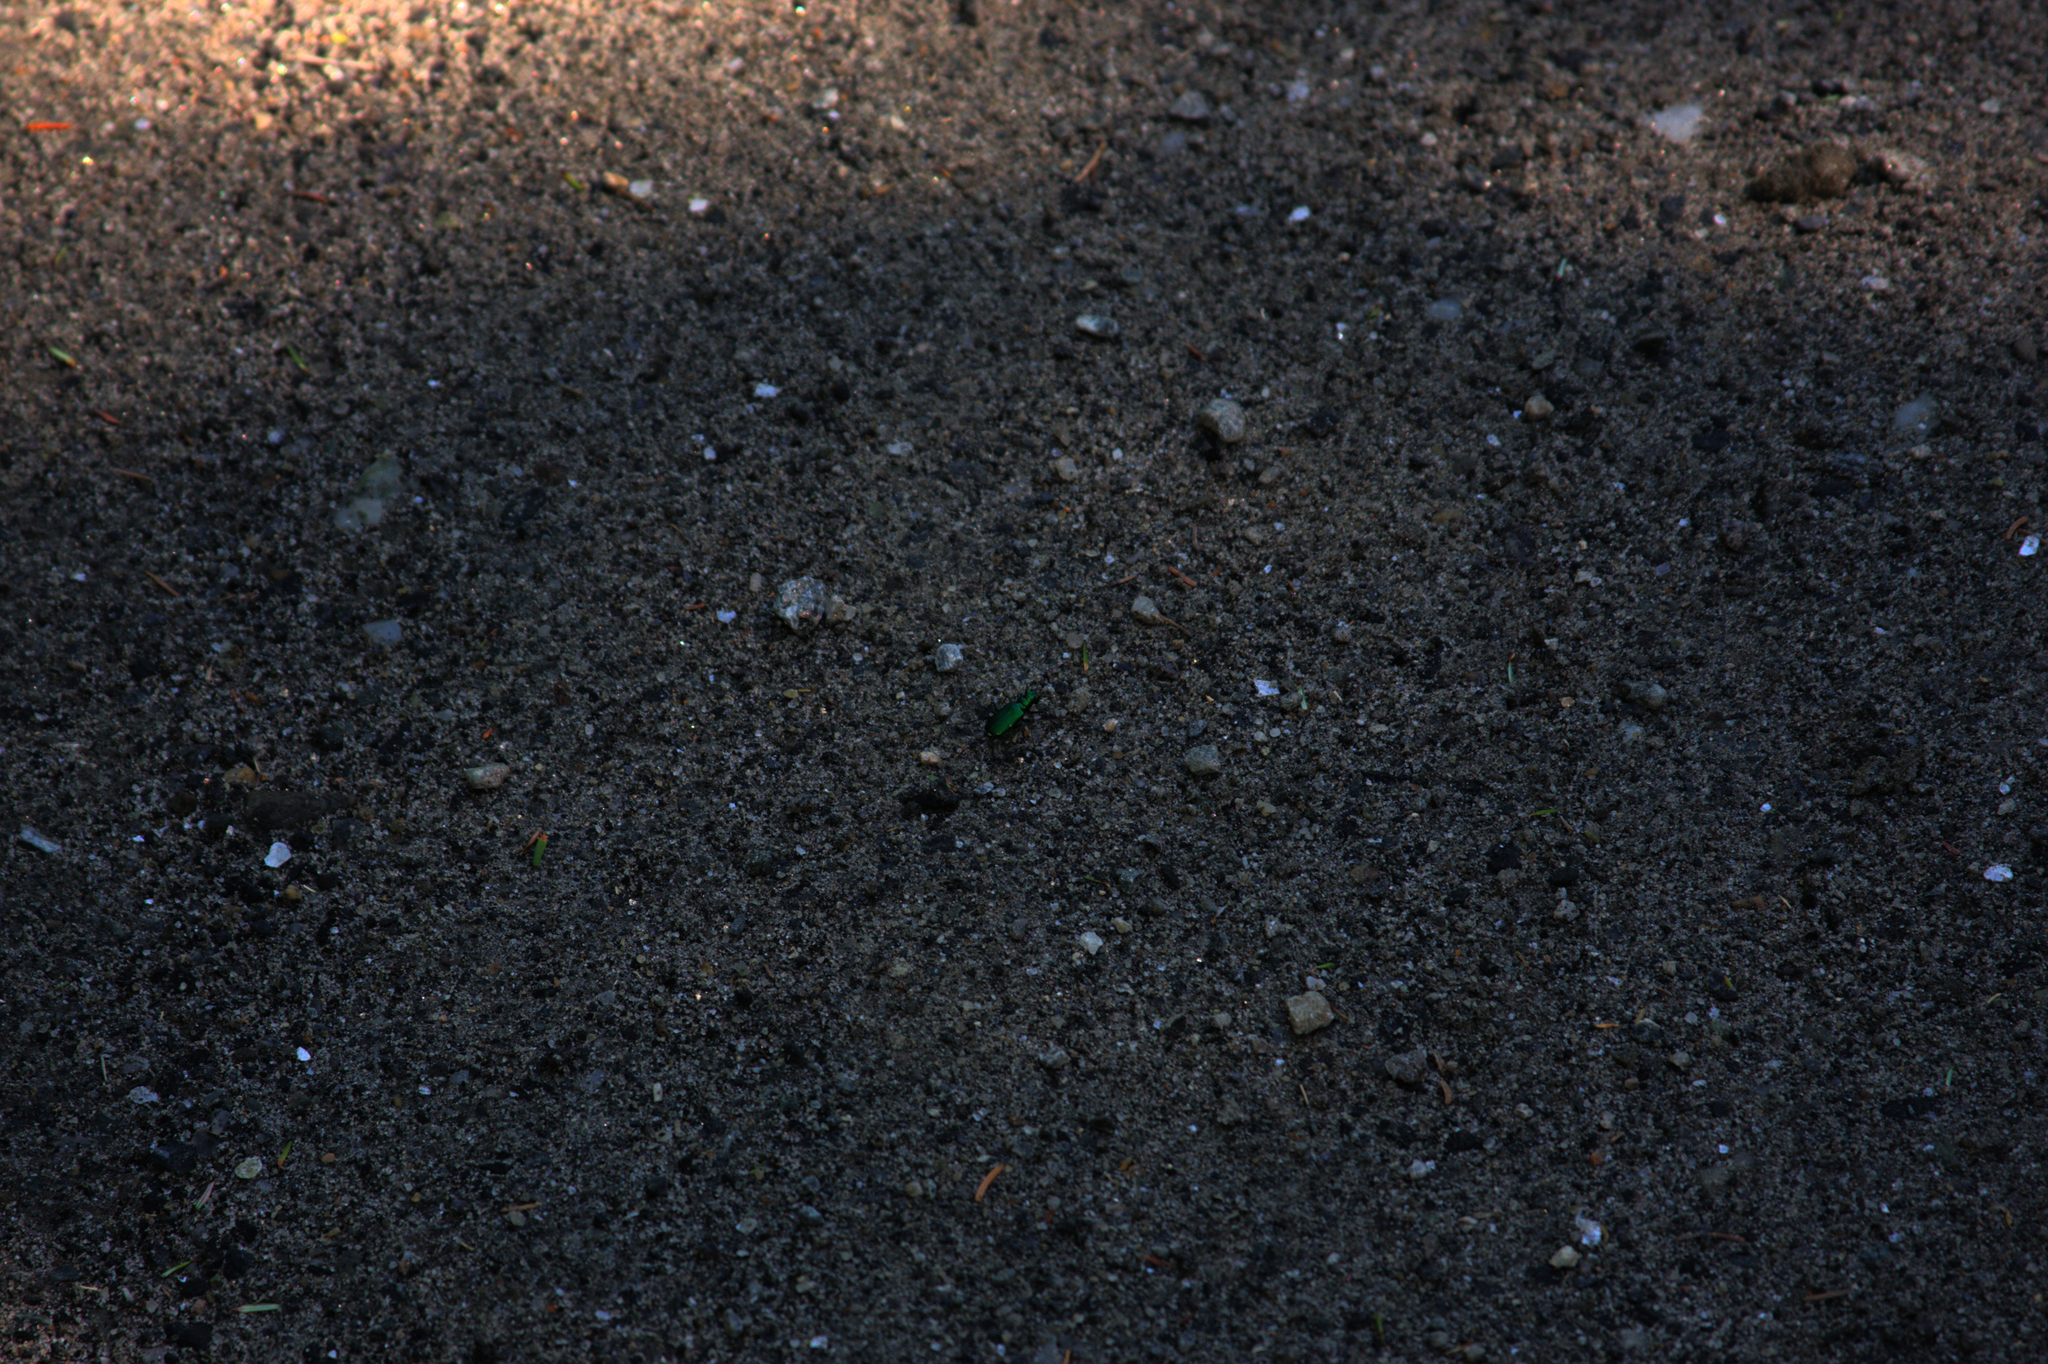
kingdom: Animalia
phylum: Arthropoda
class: Insecta
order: Coleoptera
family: Carabidae
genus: Cicindela
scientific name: Cicindela sexguttata
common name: Six-spotted tiger beetle
